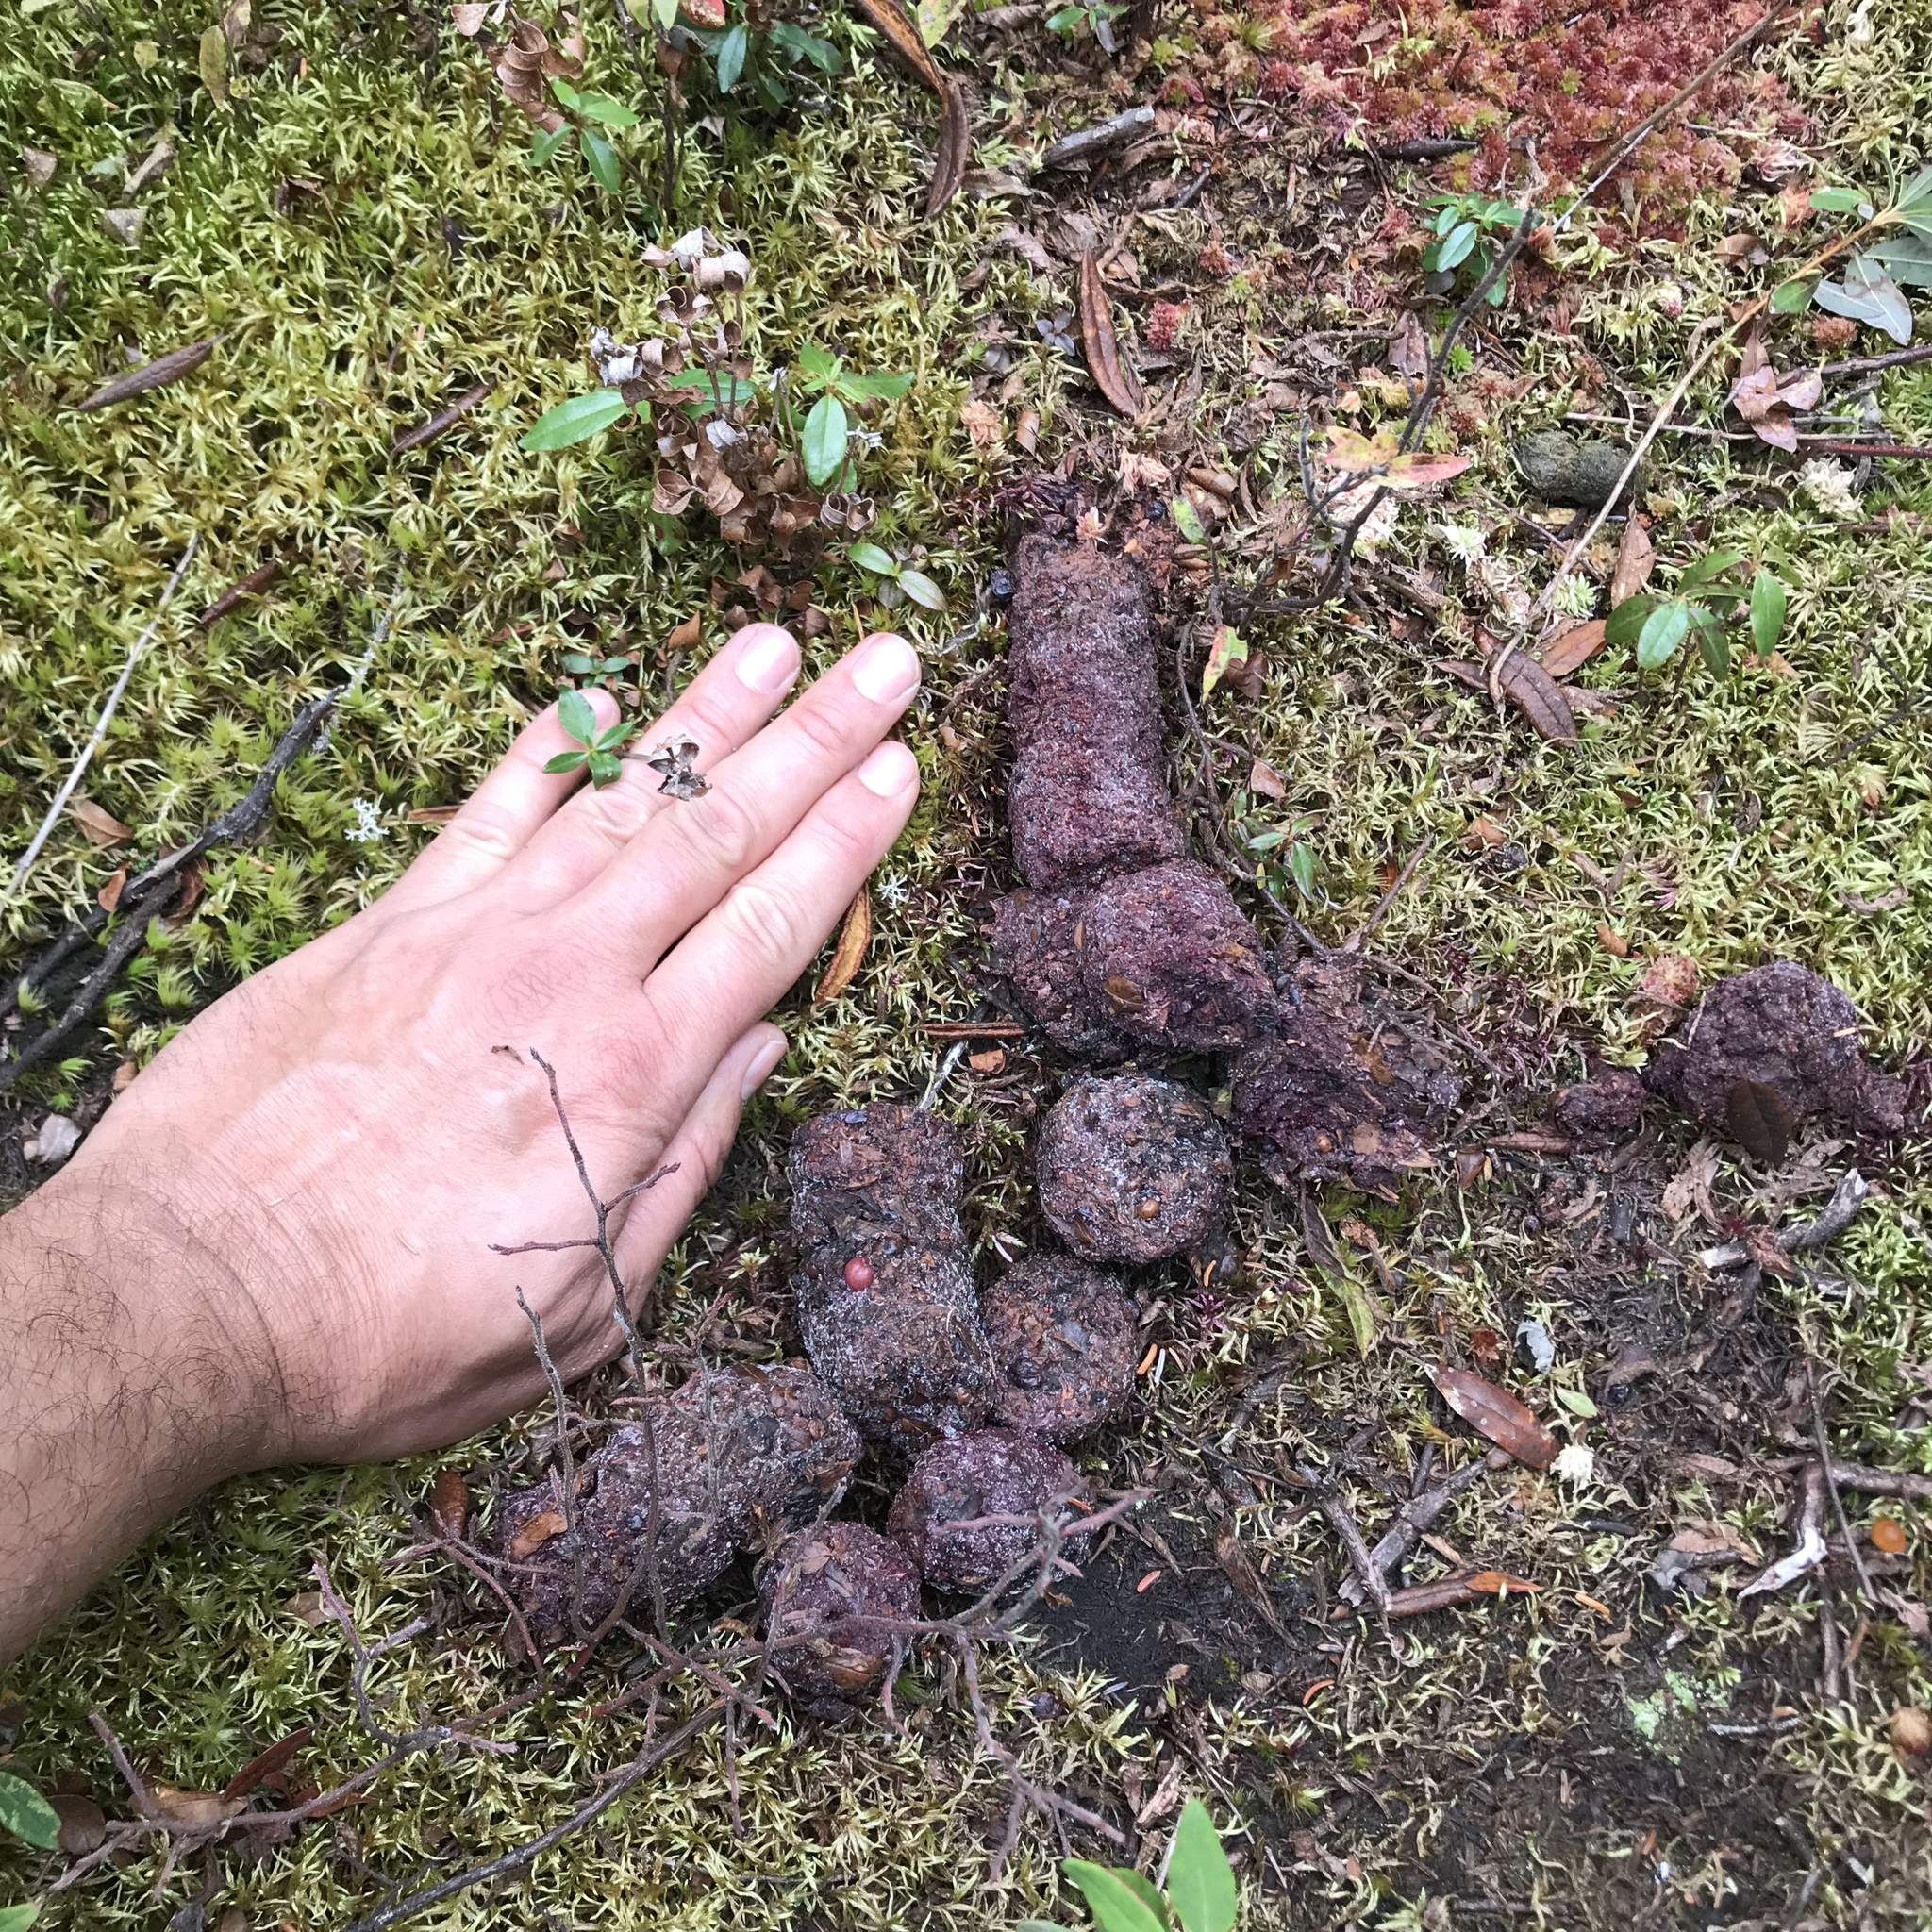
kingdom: Animalia
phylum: Chordata
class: Mammalia
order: Carnivora
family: Ursidae
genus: Ursus
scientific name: Ursus americanus
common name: American black bear
